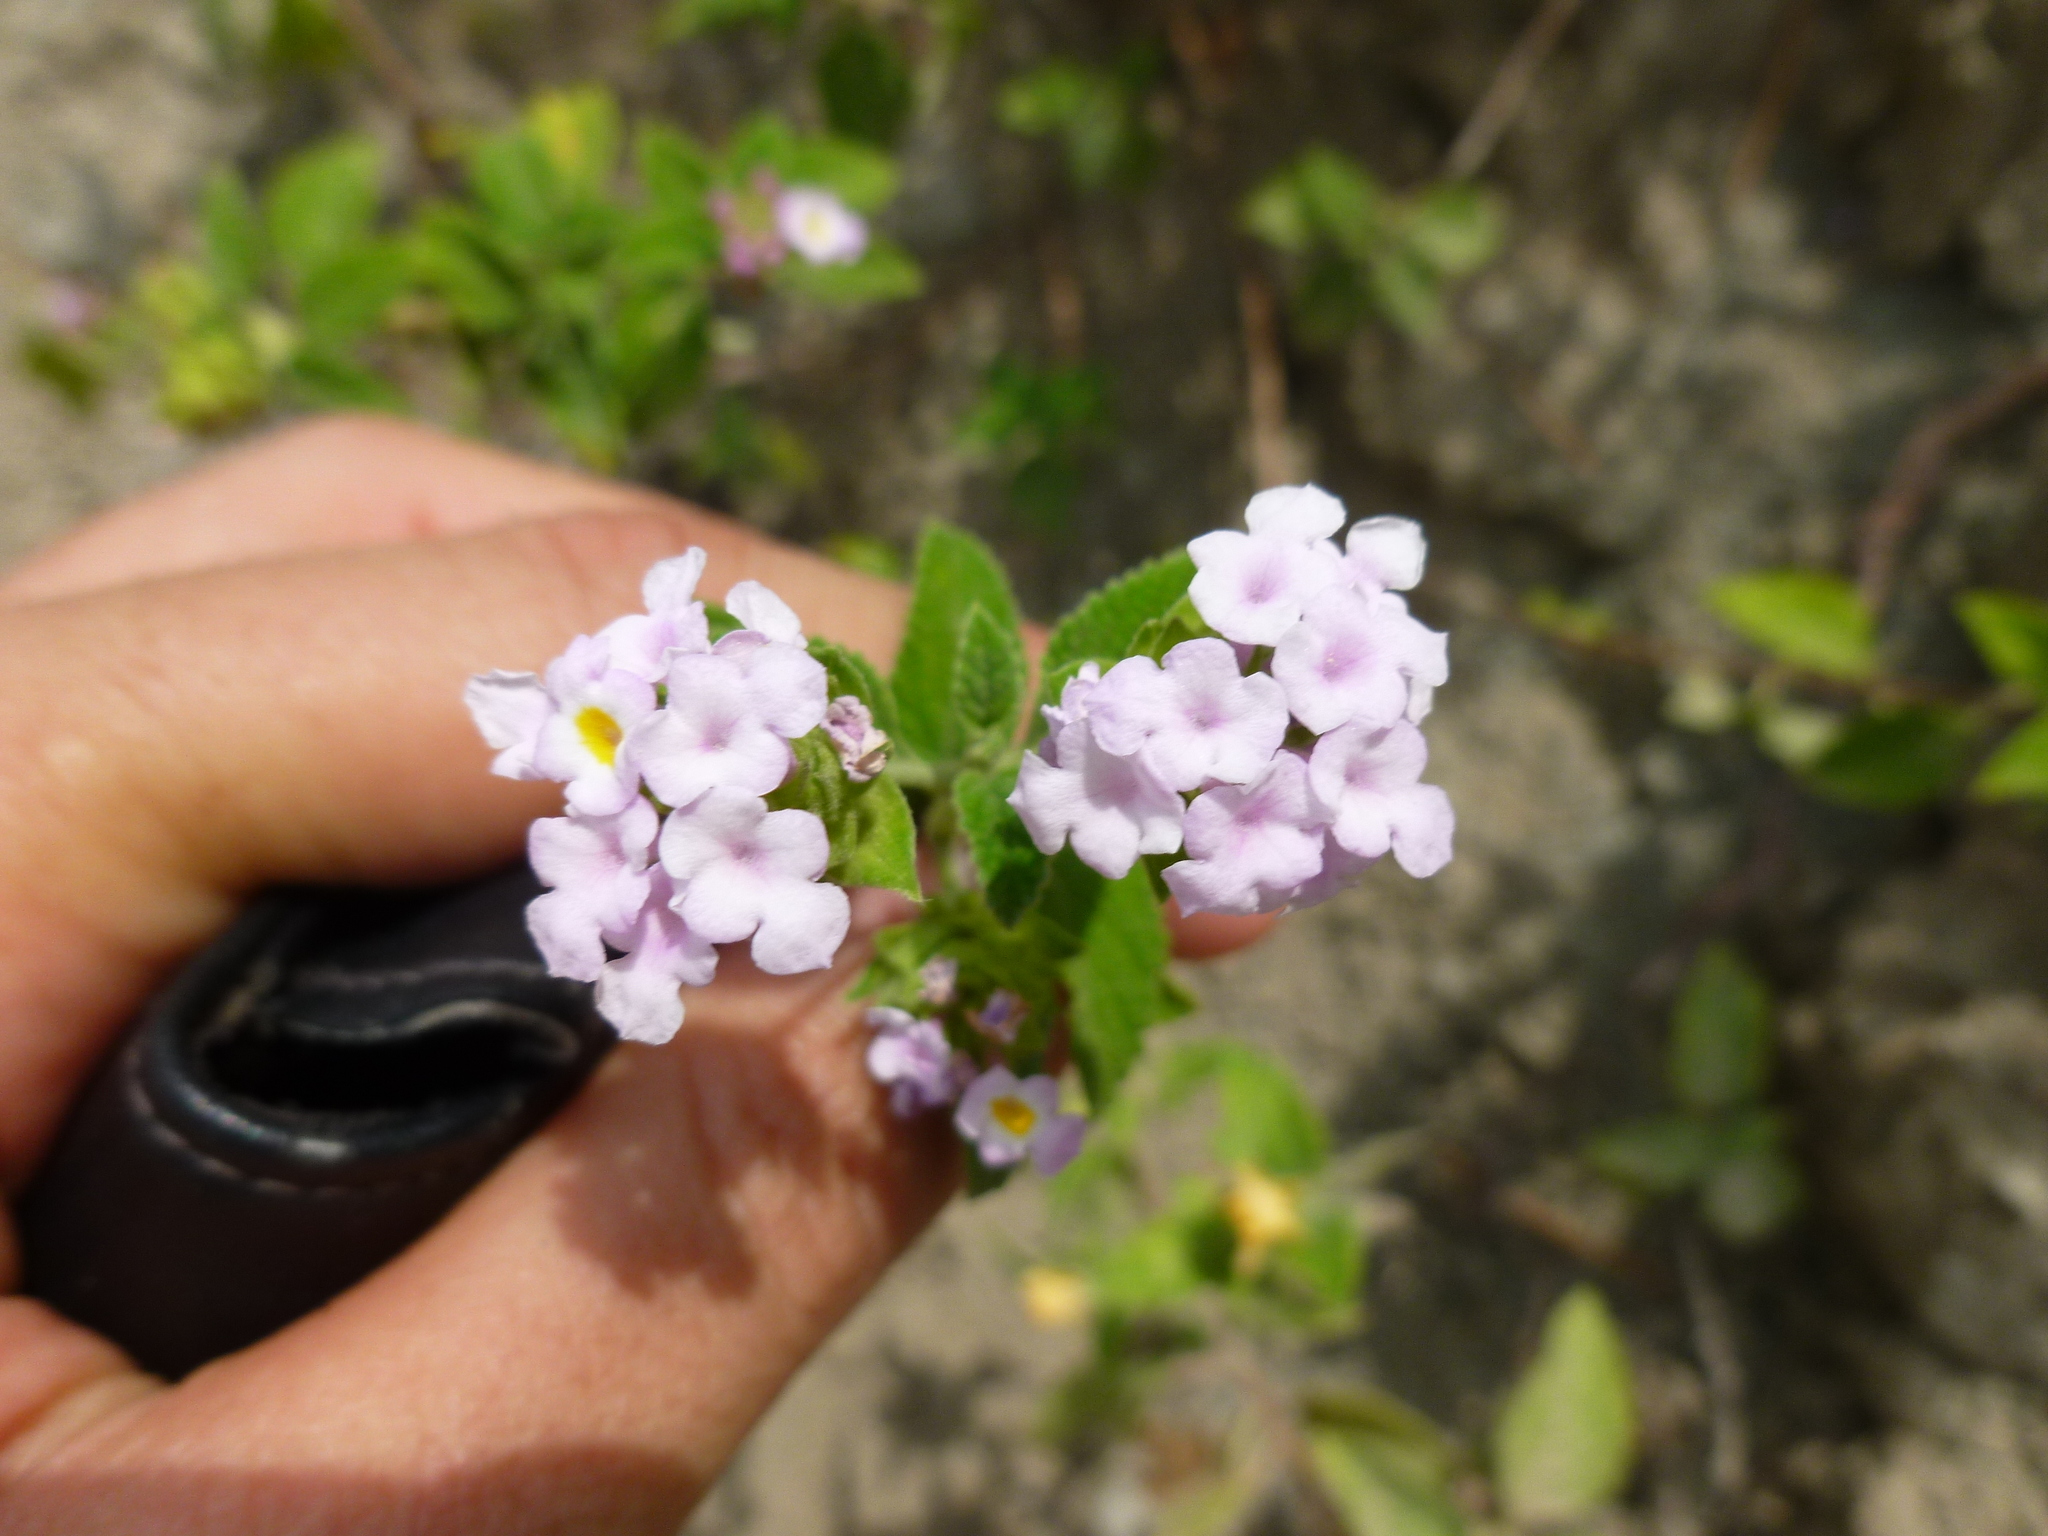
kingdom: Plantae
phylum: Tracheophyta
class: Magnoliopsida
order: Lamiales
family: Verbenaceae
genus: Lantana
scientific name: Lantana rugulosa
